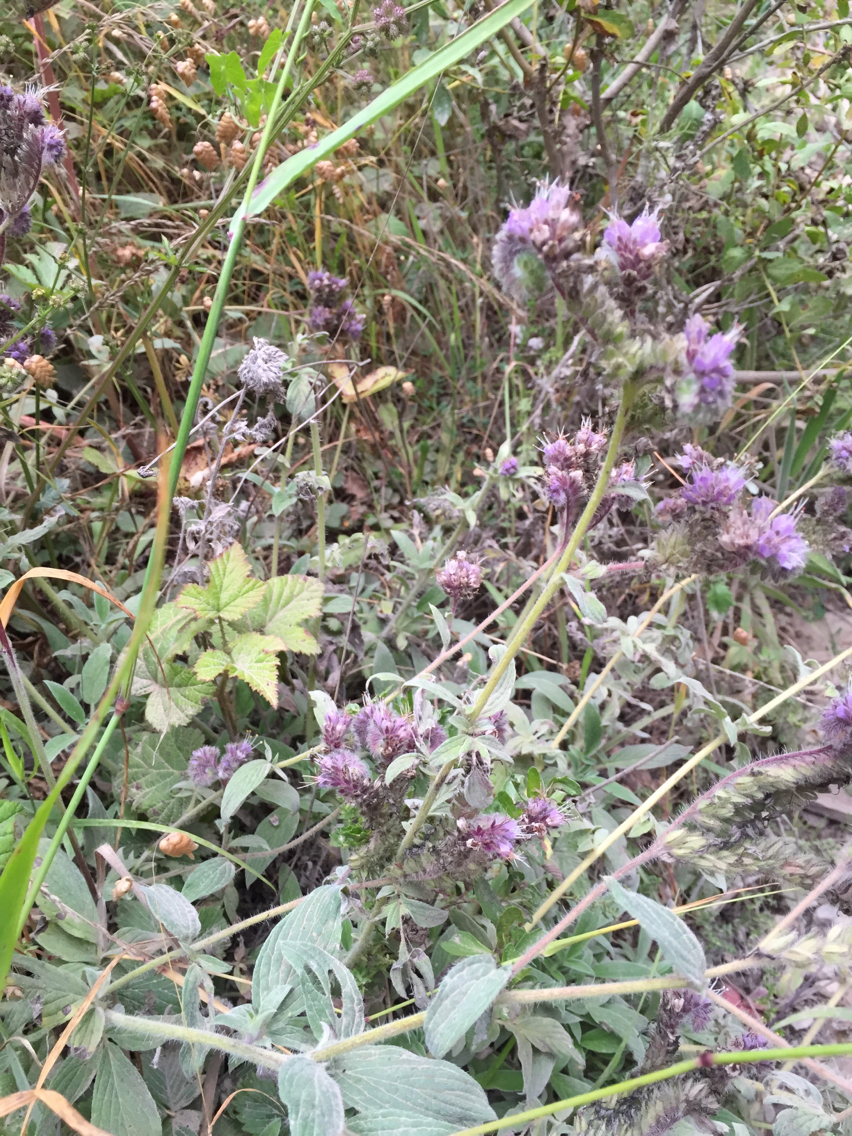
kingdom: Plantae
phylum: Tracheophyta
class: Magnoliopsida
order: Boraginales
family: Hydrophyllaceae
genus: Phacelia
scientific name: Phacelia californica
